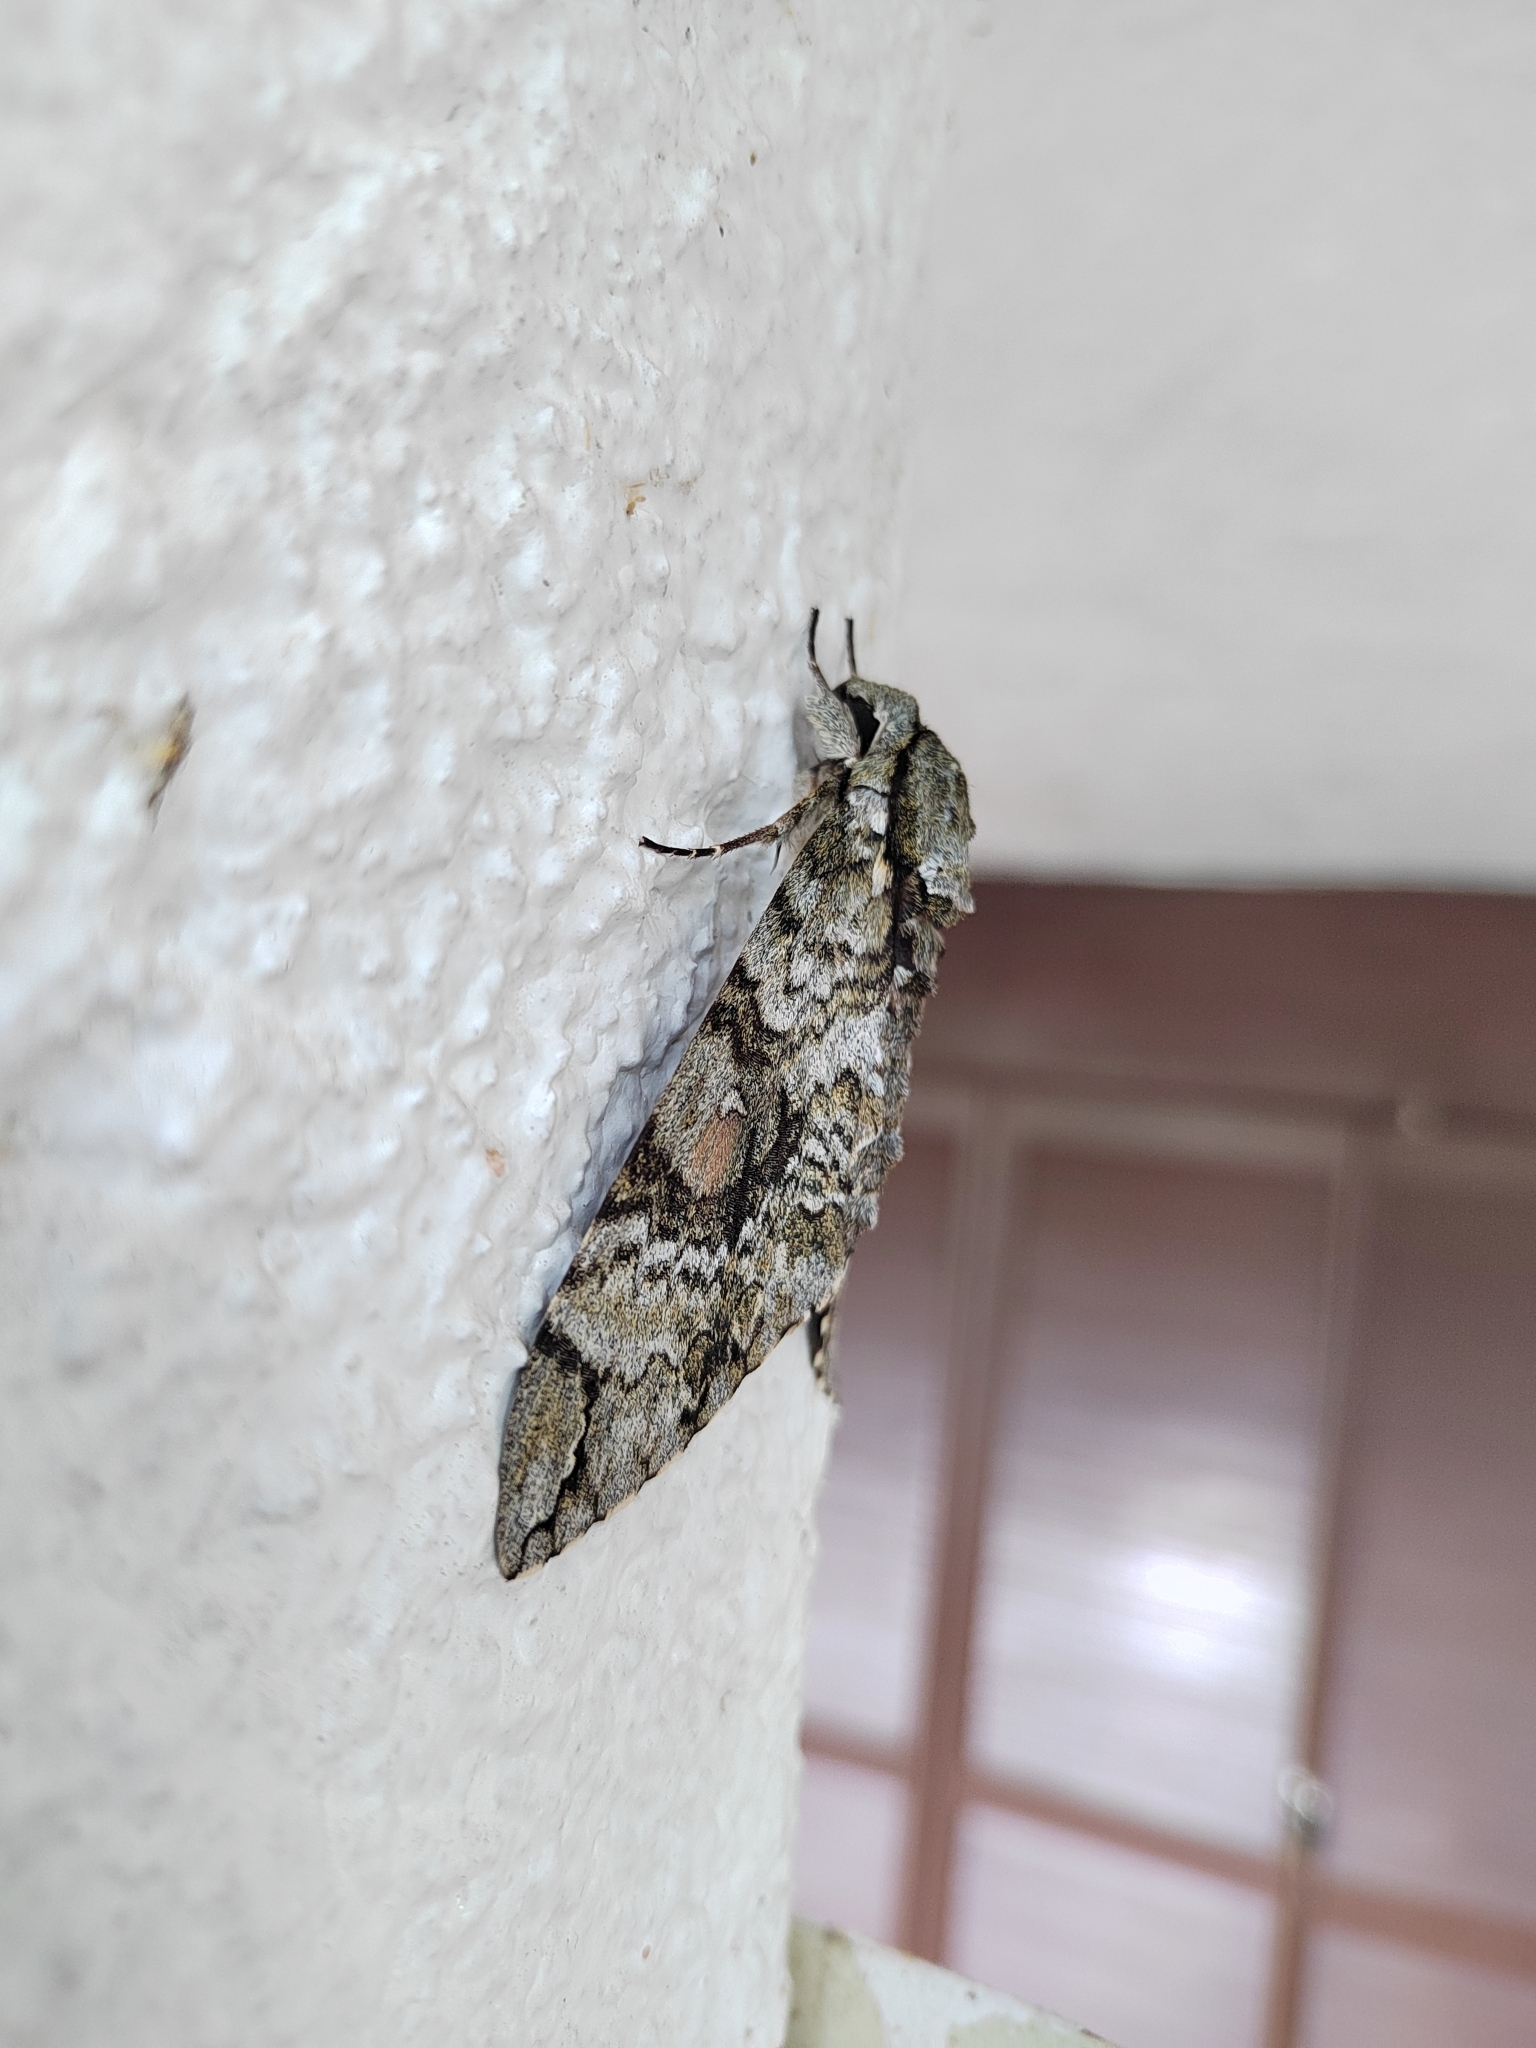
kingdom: Animalia
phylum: Arthropoda
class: Insecta
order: Lepidoptera
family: Sphingidae
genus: Manduca
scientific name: Manduca florestan
